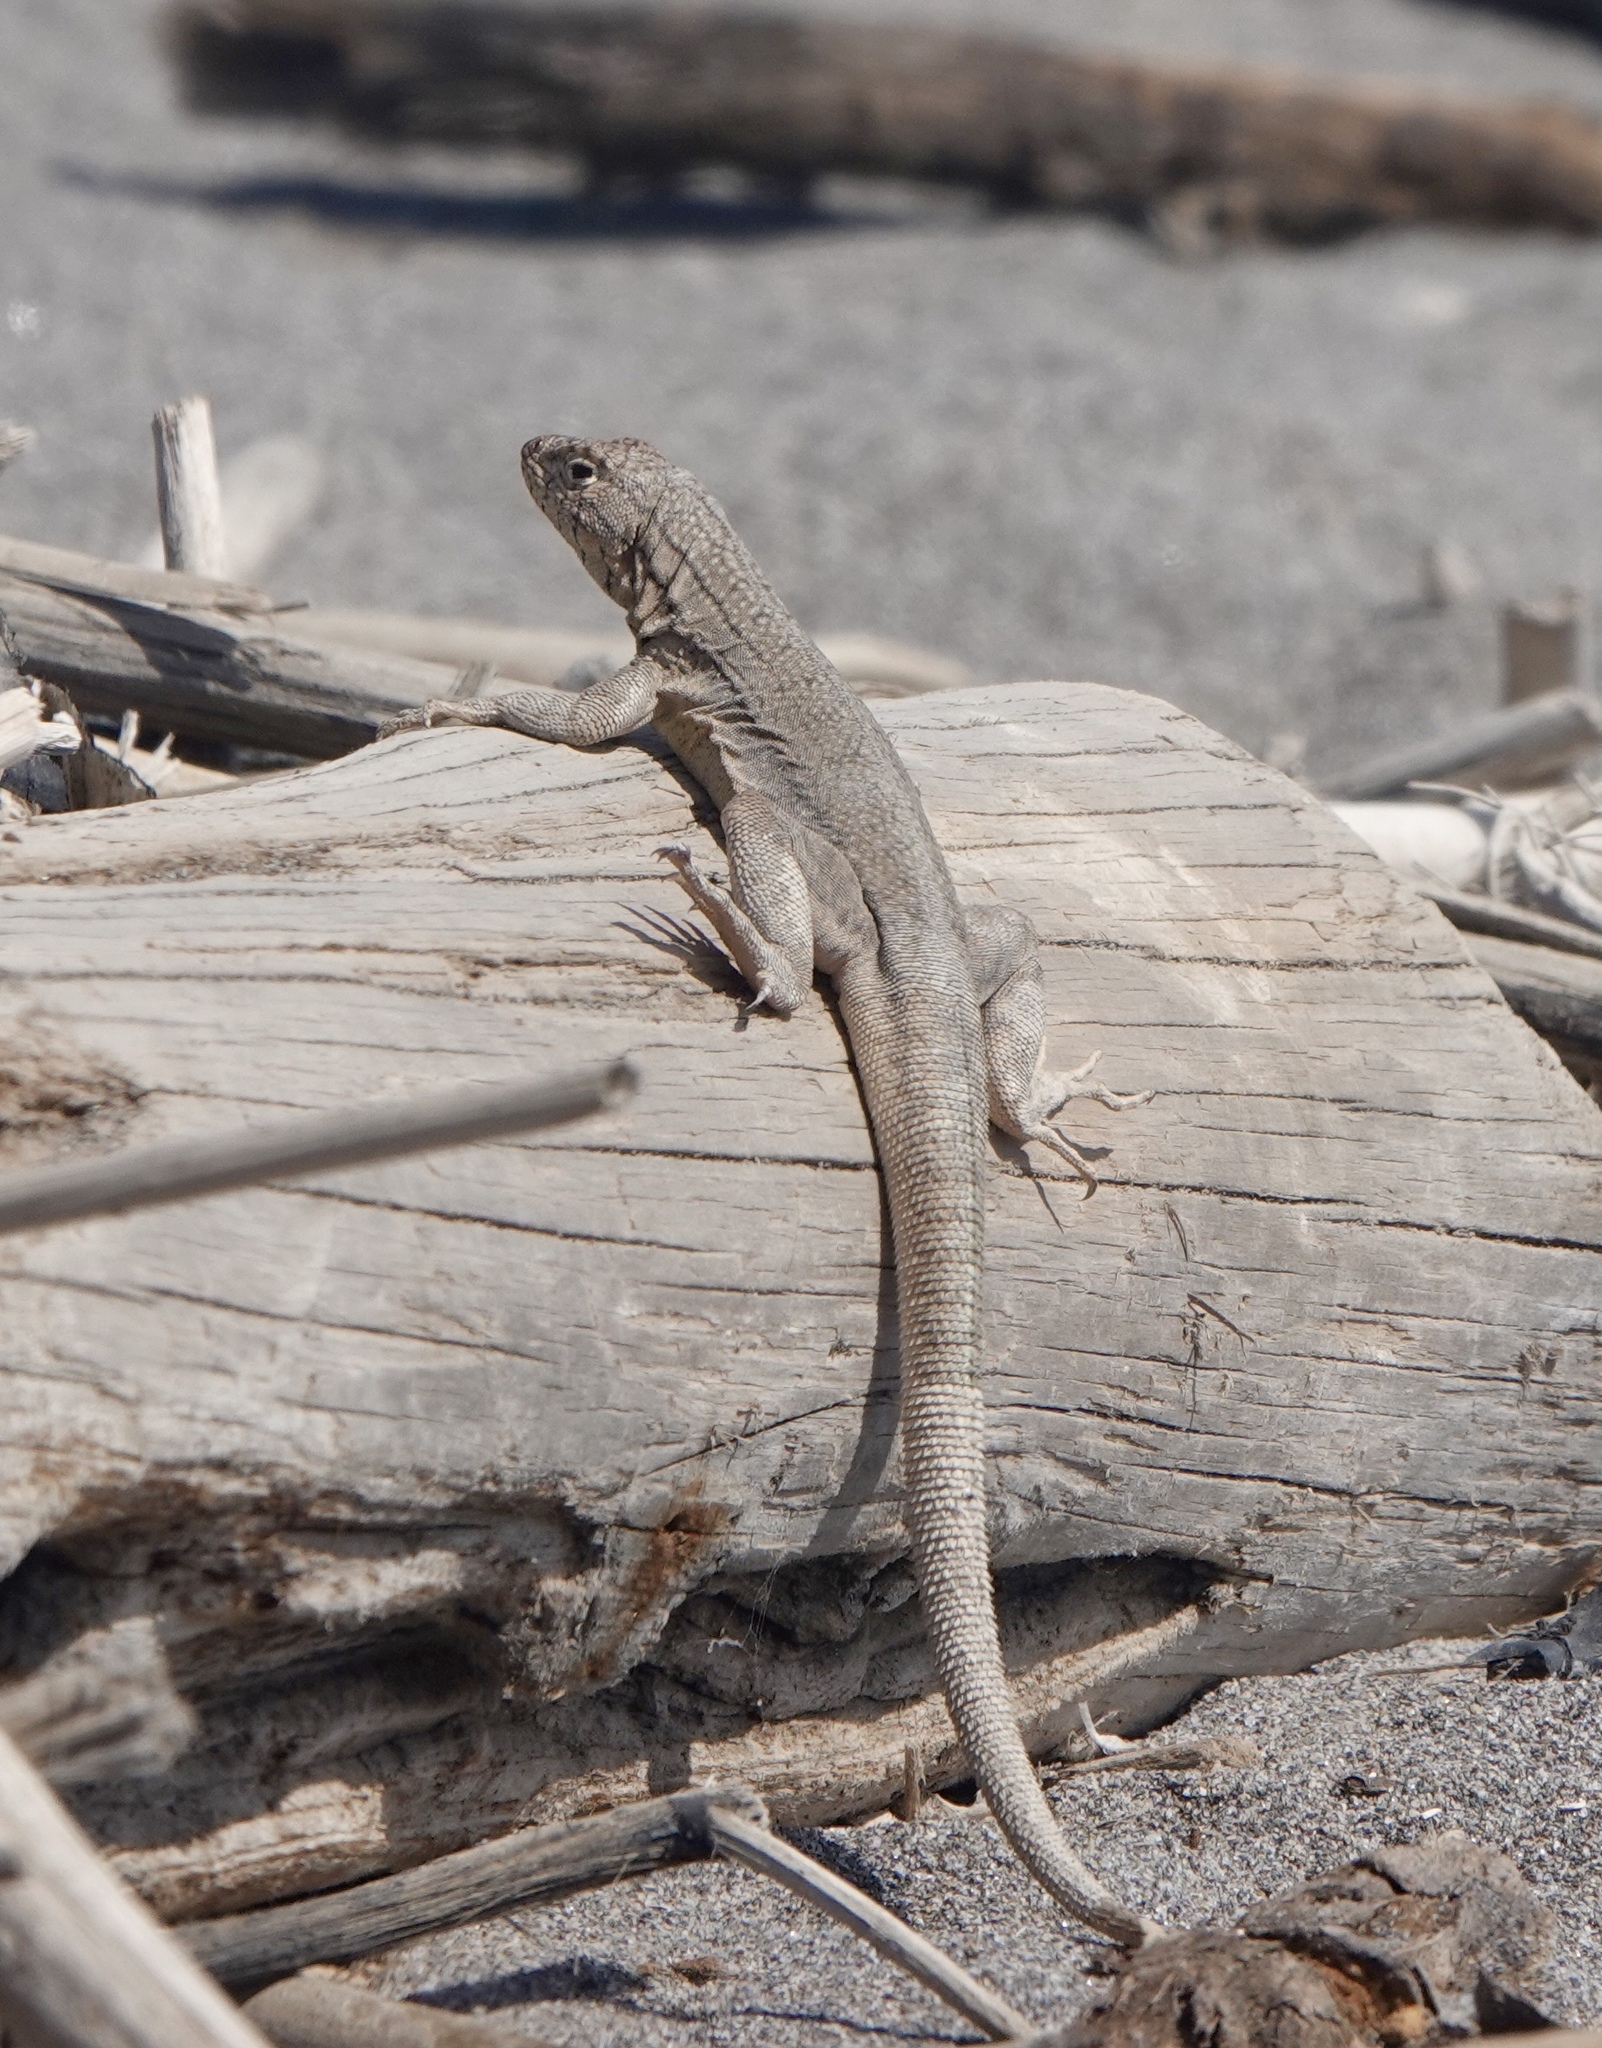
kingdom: Animalia
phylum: Chordata
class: Squamata
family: Tropiduridae
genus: Microlophus
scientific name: Microlophus yanezi
